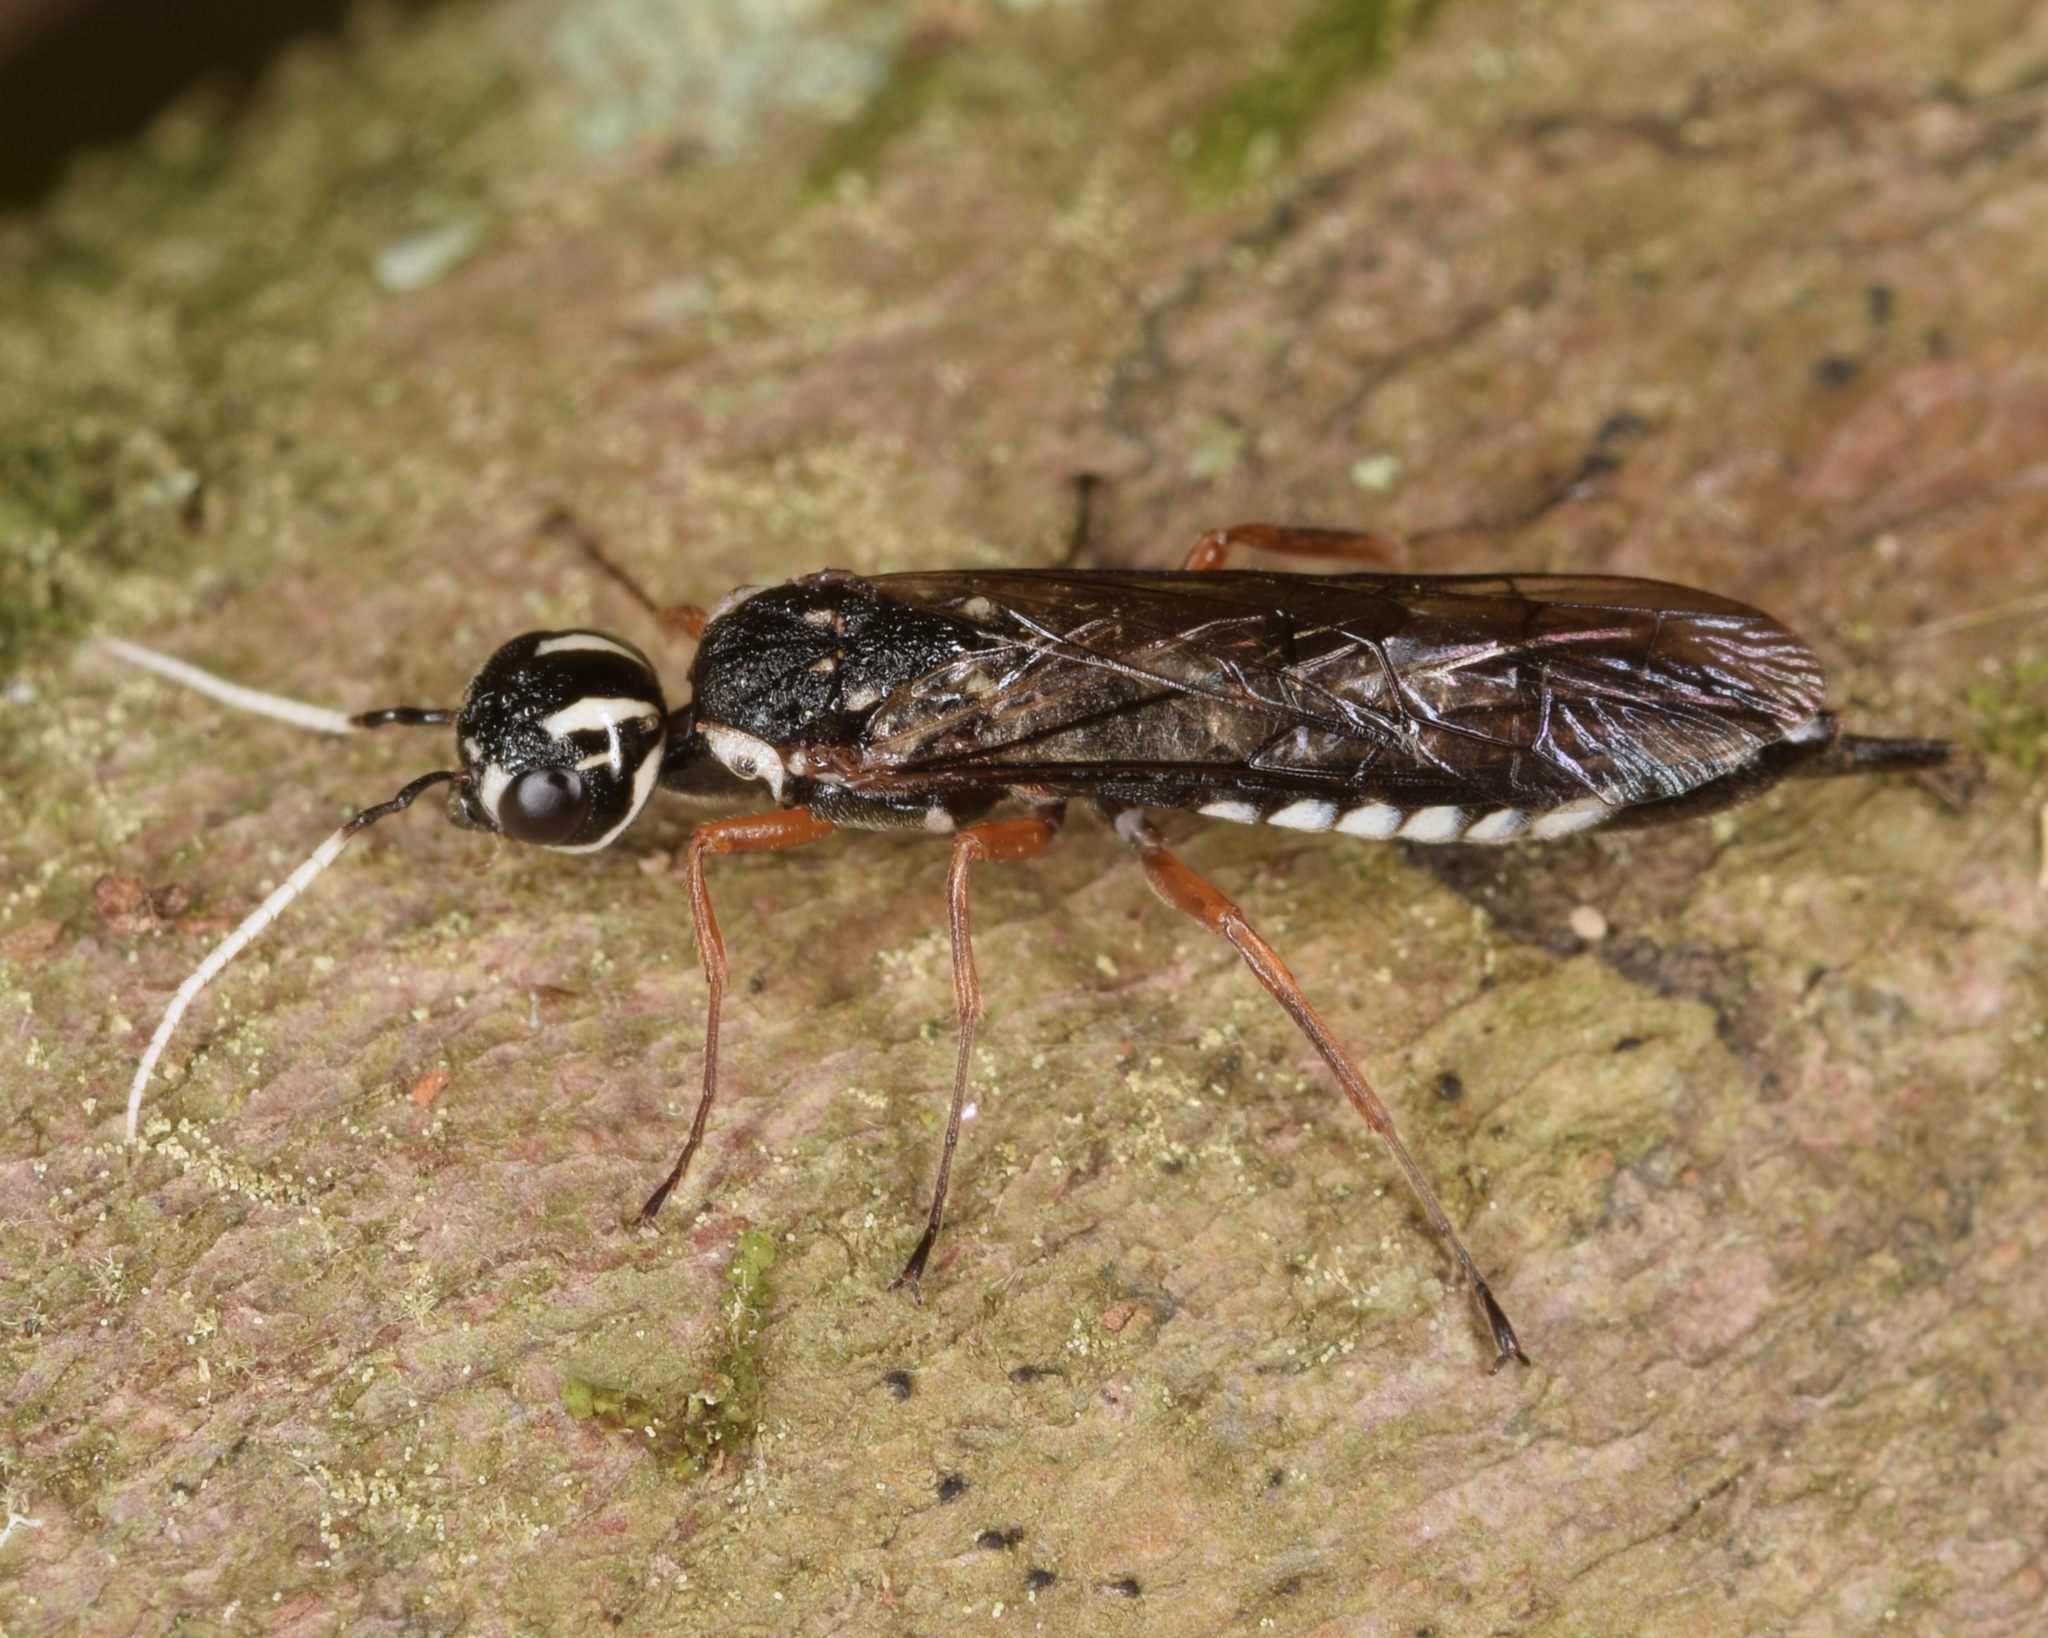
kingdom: Animalia
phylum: Arthropoda
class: Insecta
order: Hymenoptera
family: Xiphydriidae
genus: Xiphydria
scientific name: Xiphydria
